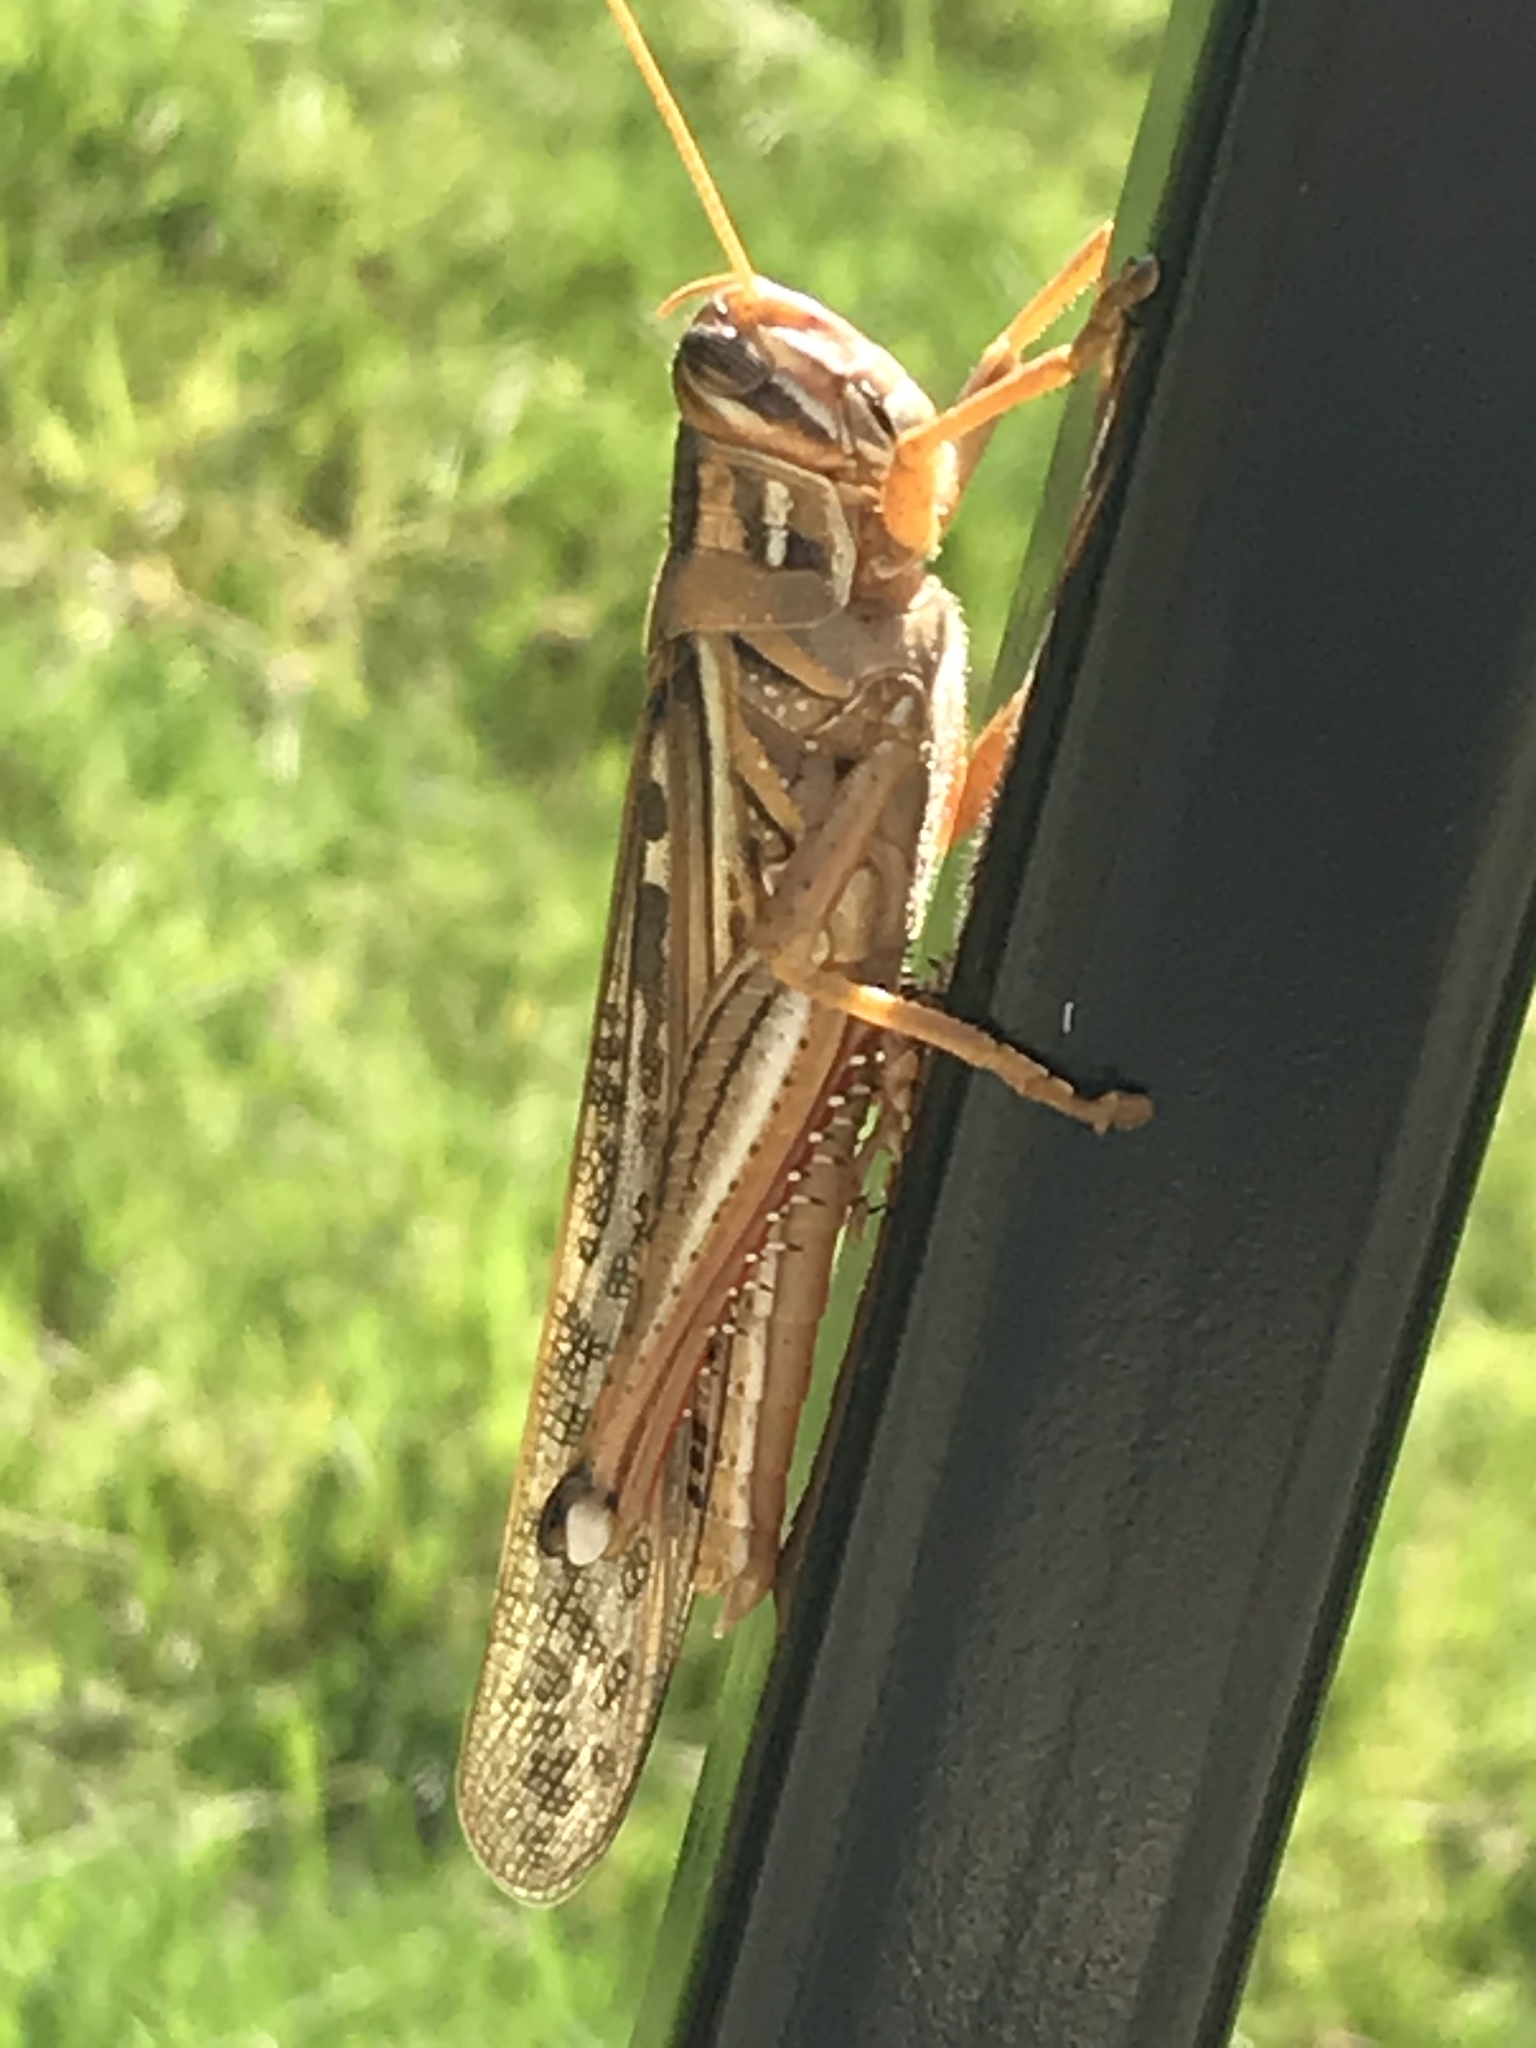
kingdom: Animalia
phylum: Arthropoda
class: Insecta
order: Orthoptera
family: Acrididae
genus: Schistocerca
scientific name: Schistocerca americana
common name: American bird locust
